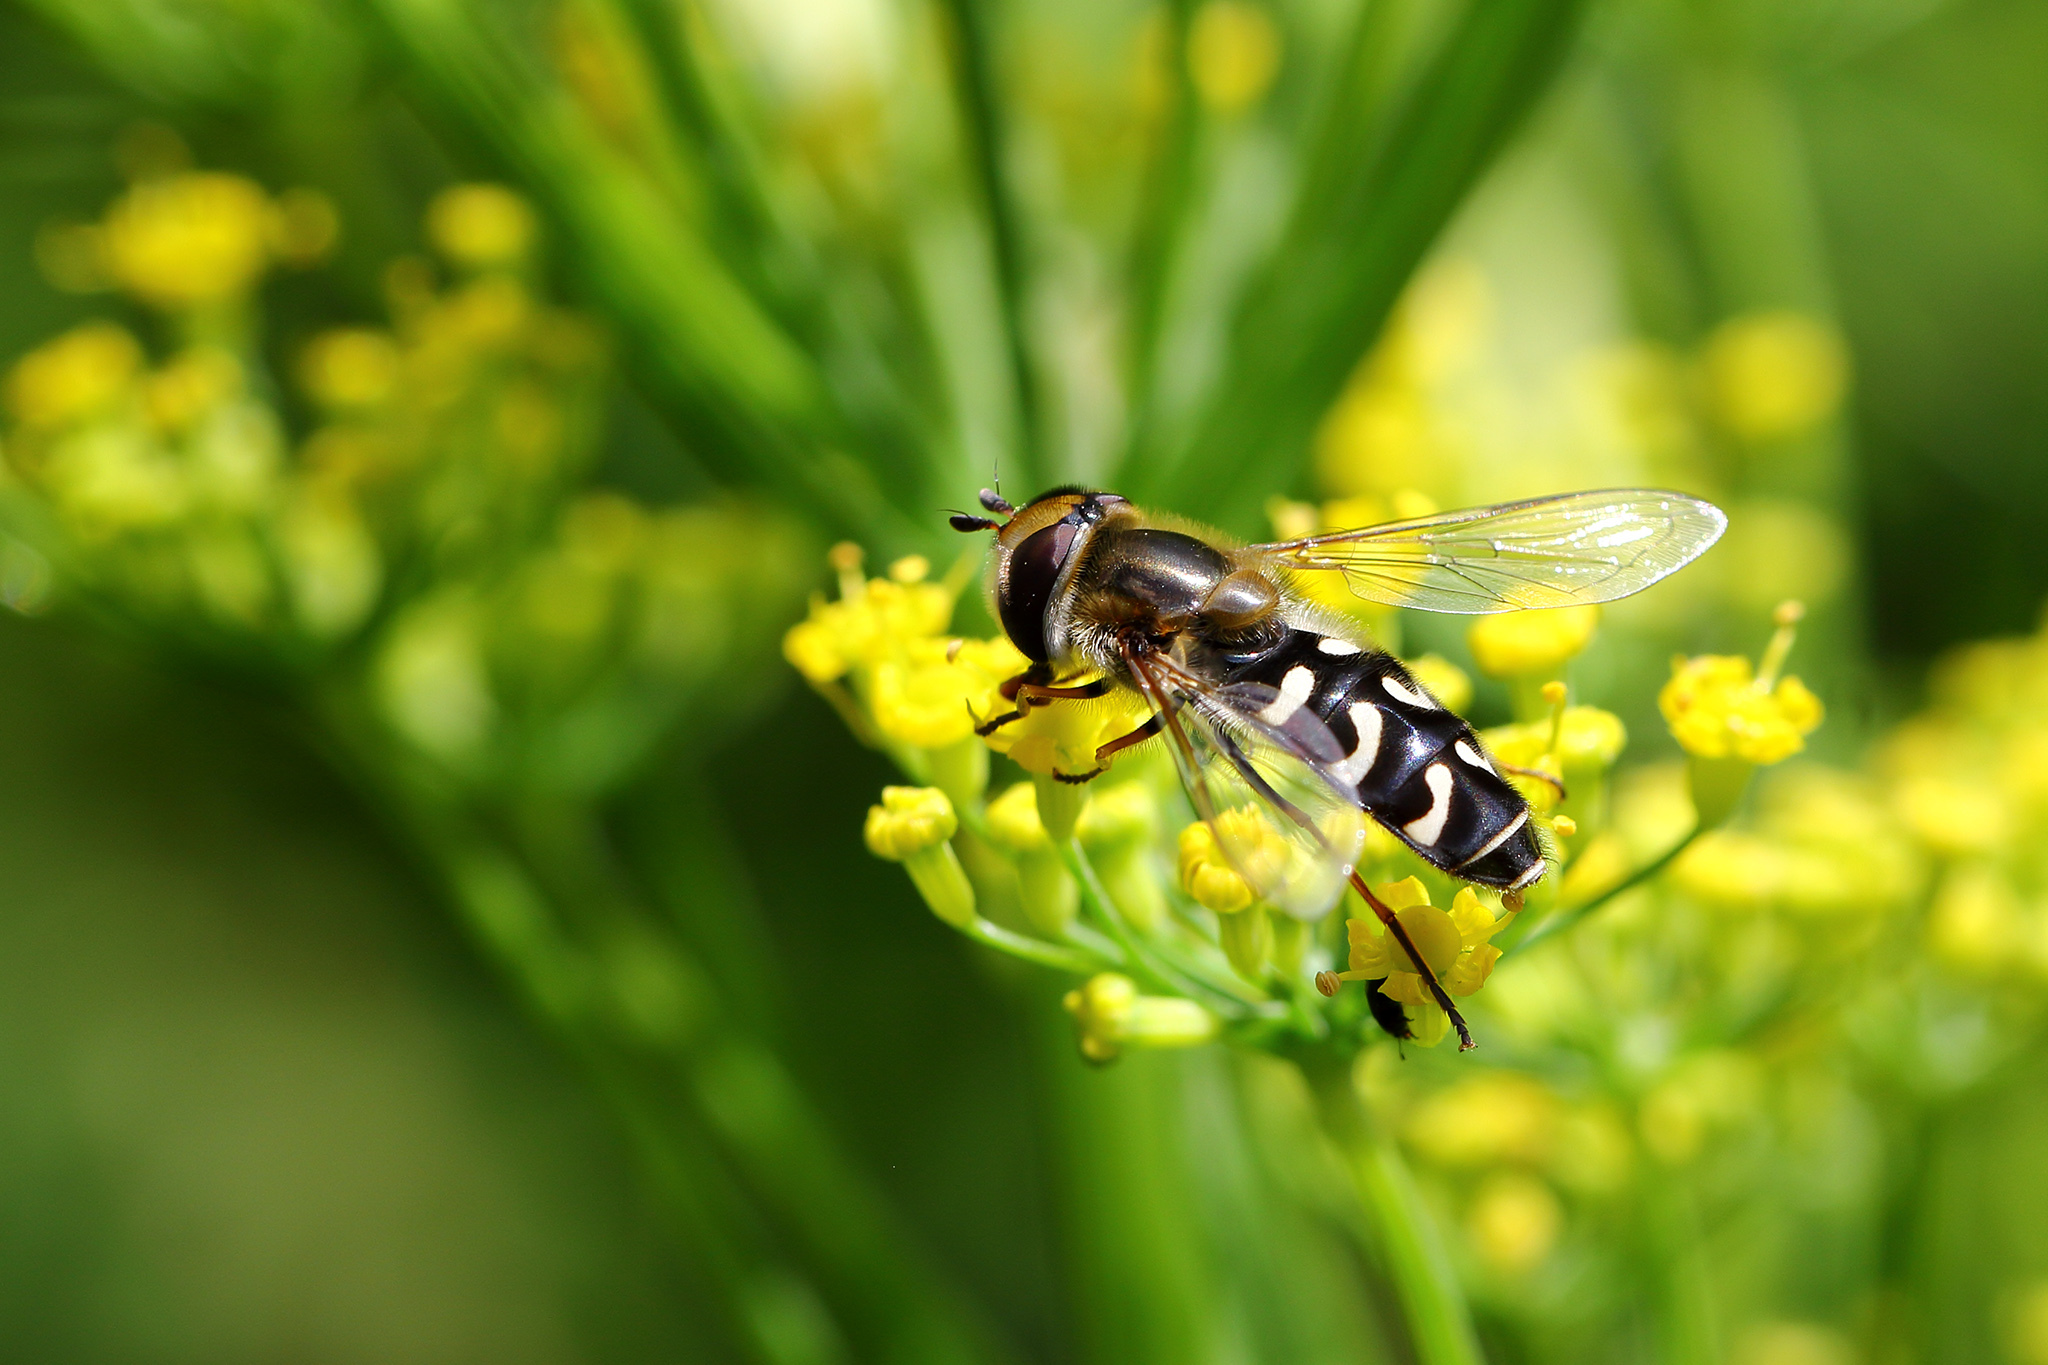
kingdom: Animalia
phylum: Arthropoda
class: Insecta
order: Diptera
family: Syrphidae
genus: Scaeva
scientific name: Scaeva pyrastri
